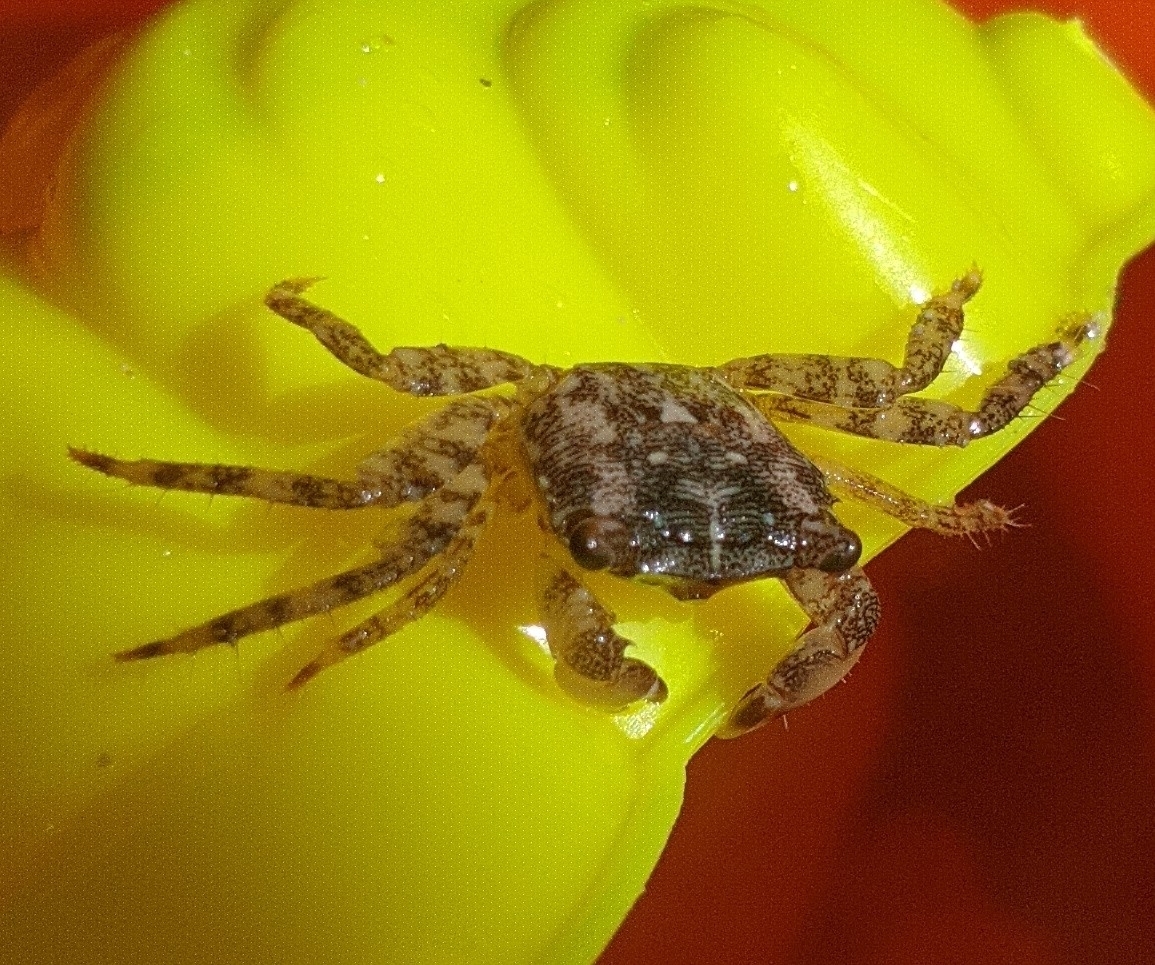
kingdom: Animalia
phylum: Arthropoda
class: Malacostraca
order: Decapoda
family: Grapsidae
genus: Pachygrapsus
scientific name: Pachygrapsus marmoratus
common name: Marbled rock crab
